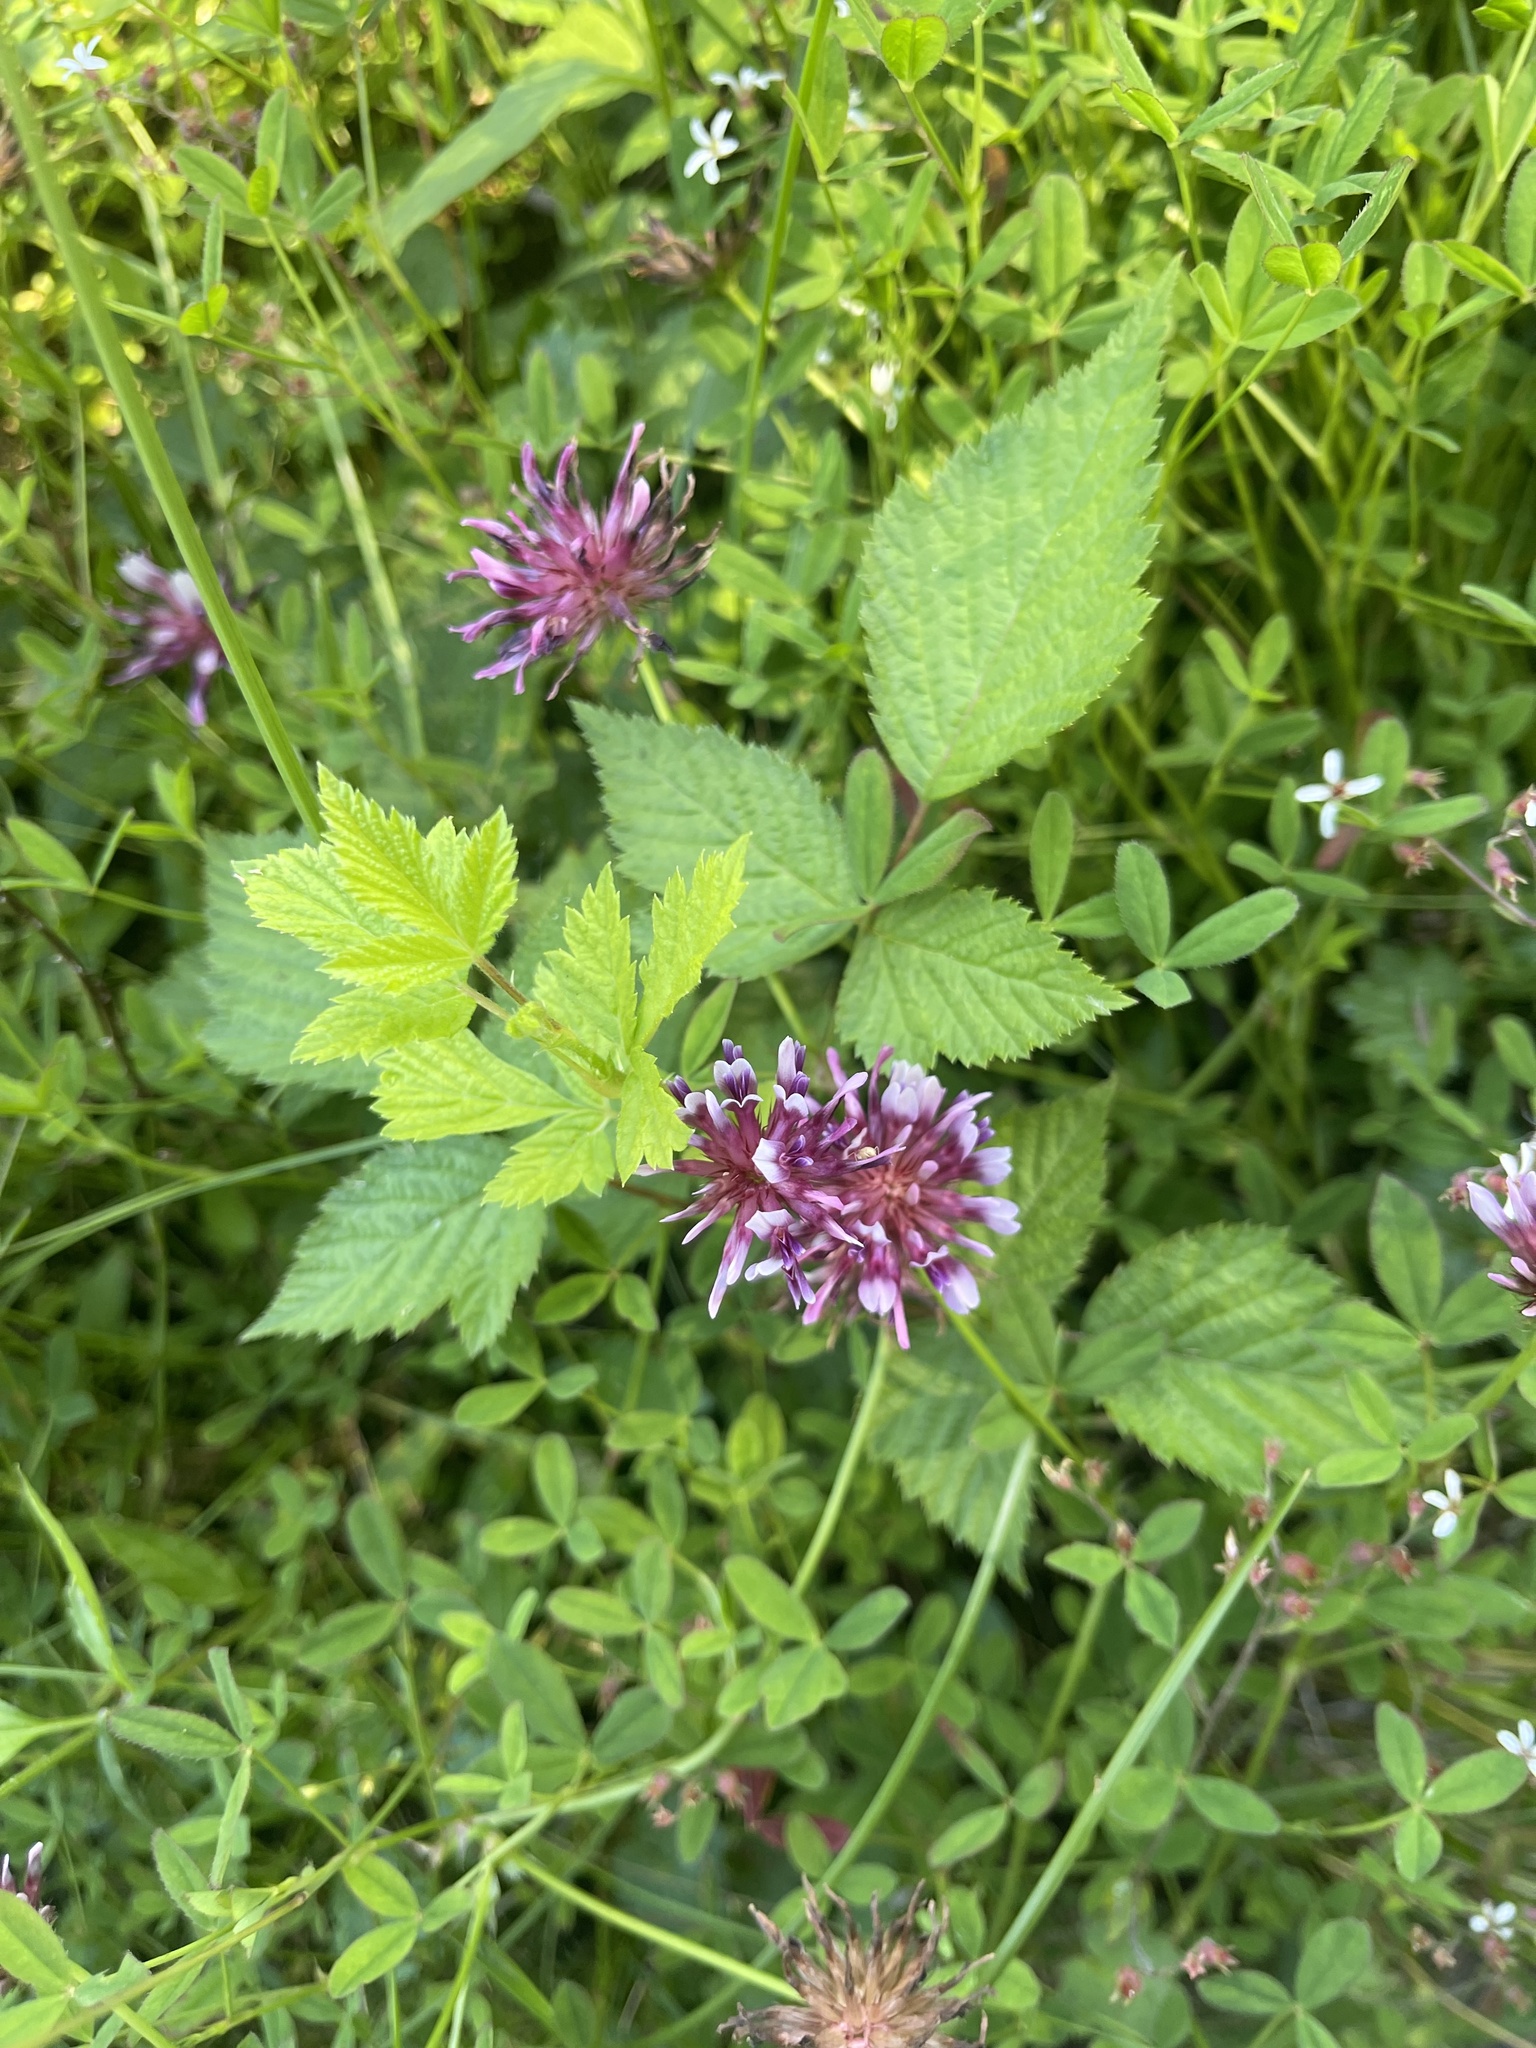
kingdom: Plantae
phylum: Tracheophyta
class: Magnoliopsida
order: Fabales
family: Fabaceae
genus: Trifolium
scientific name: Trifolium wormskioldii
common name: Springbank clover
